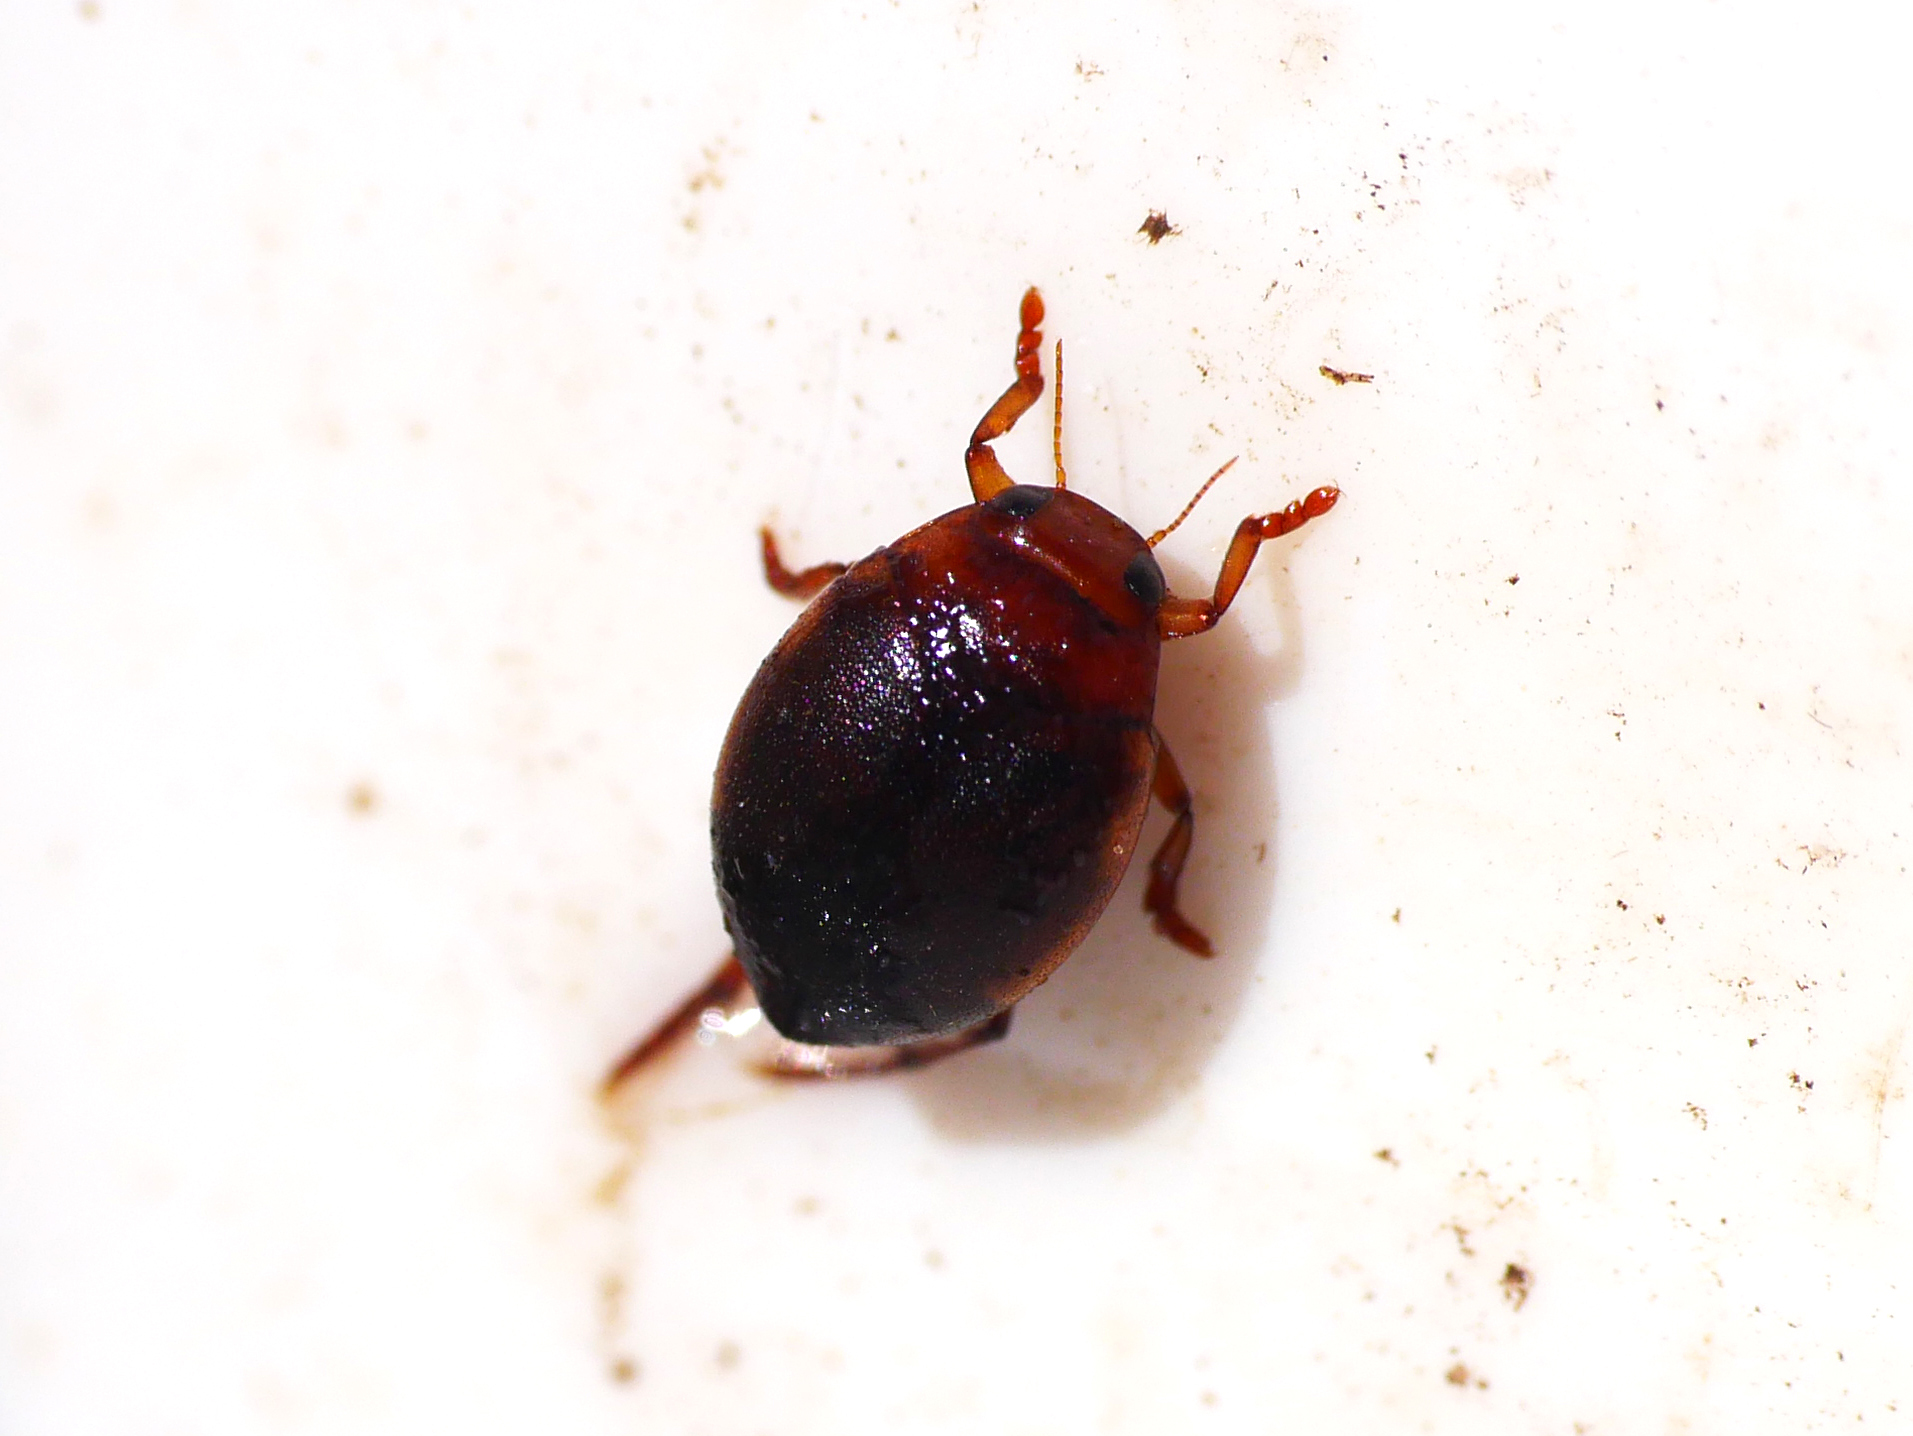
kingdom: Animalia
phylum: Arthropoda
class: Insecta
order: Coleoptera
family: Dytiscidae
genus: Hyphydrus
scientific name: Hyphydrus ovatus
